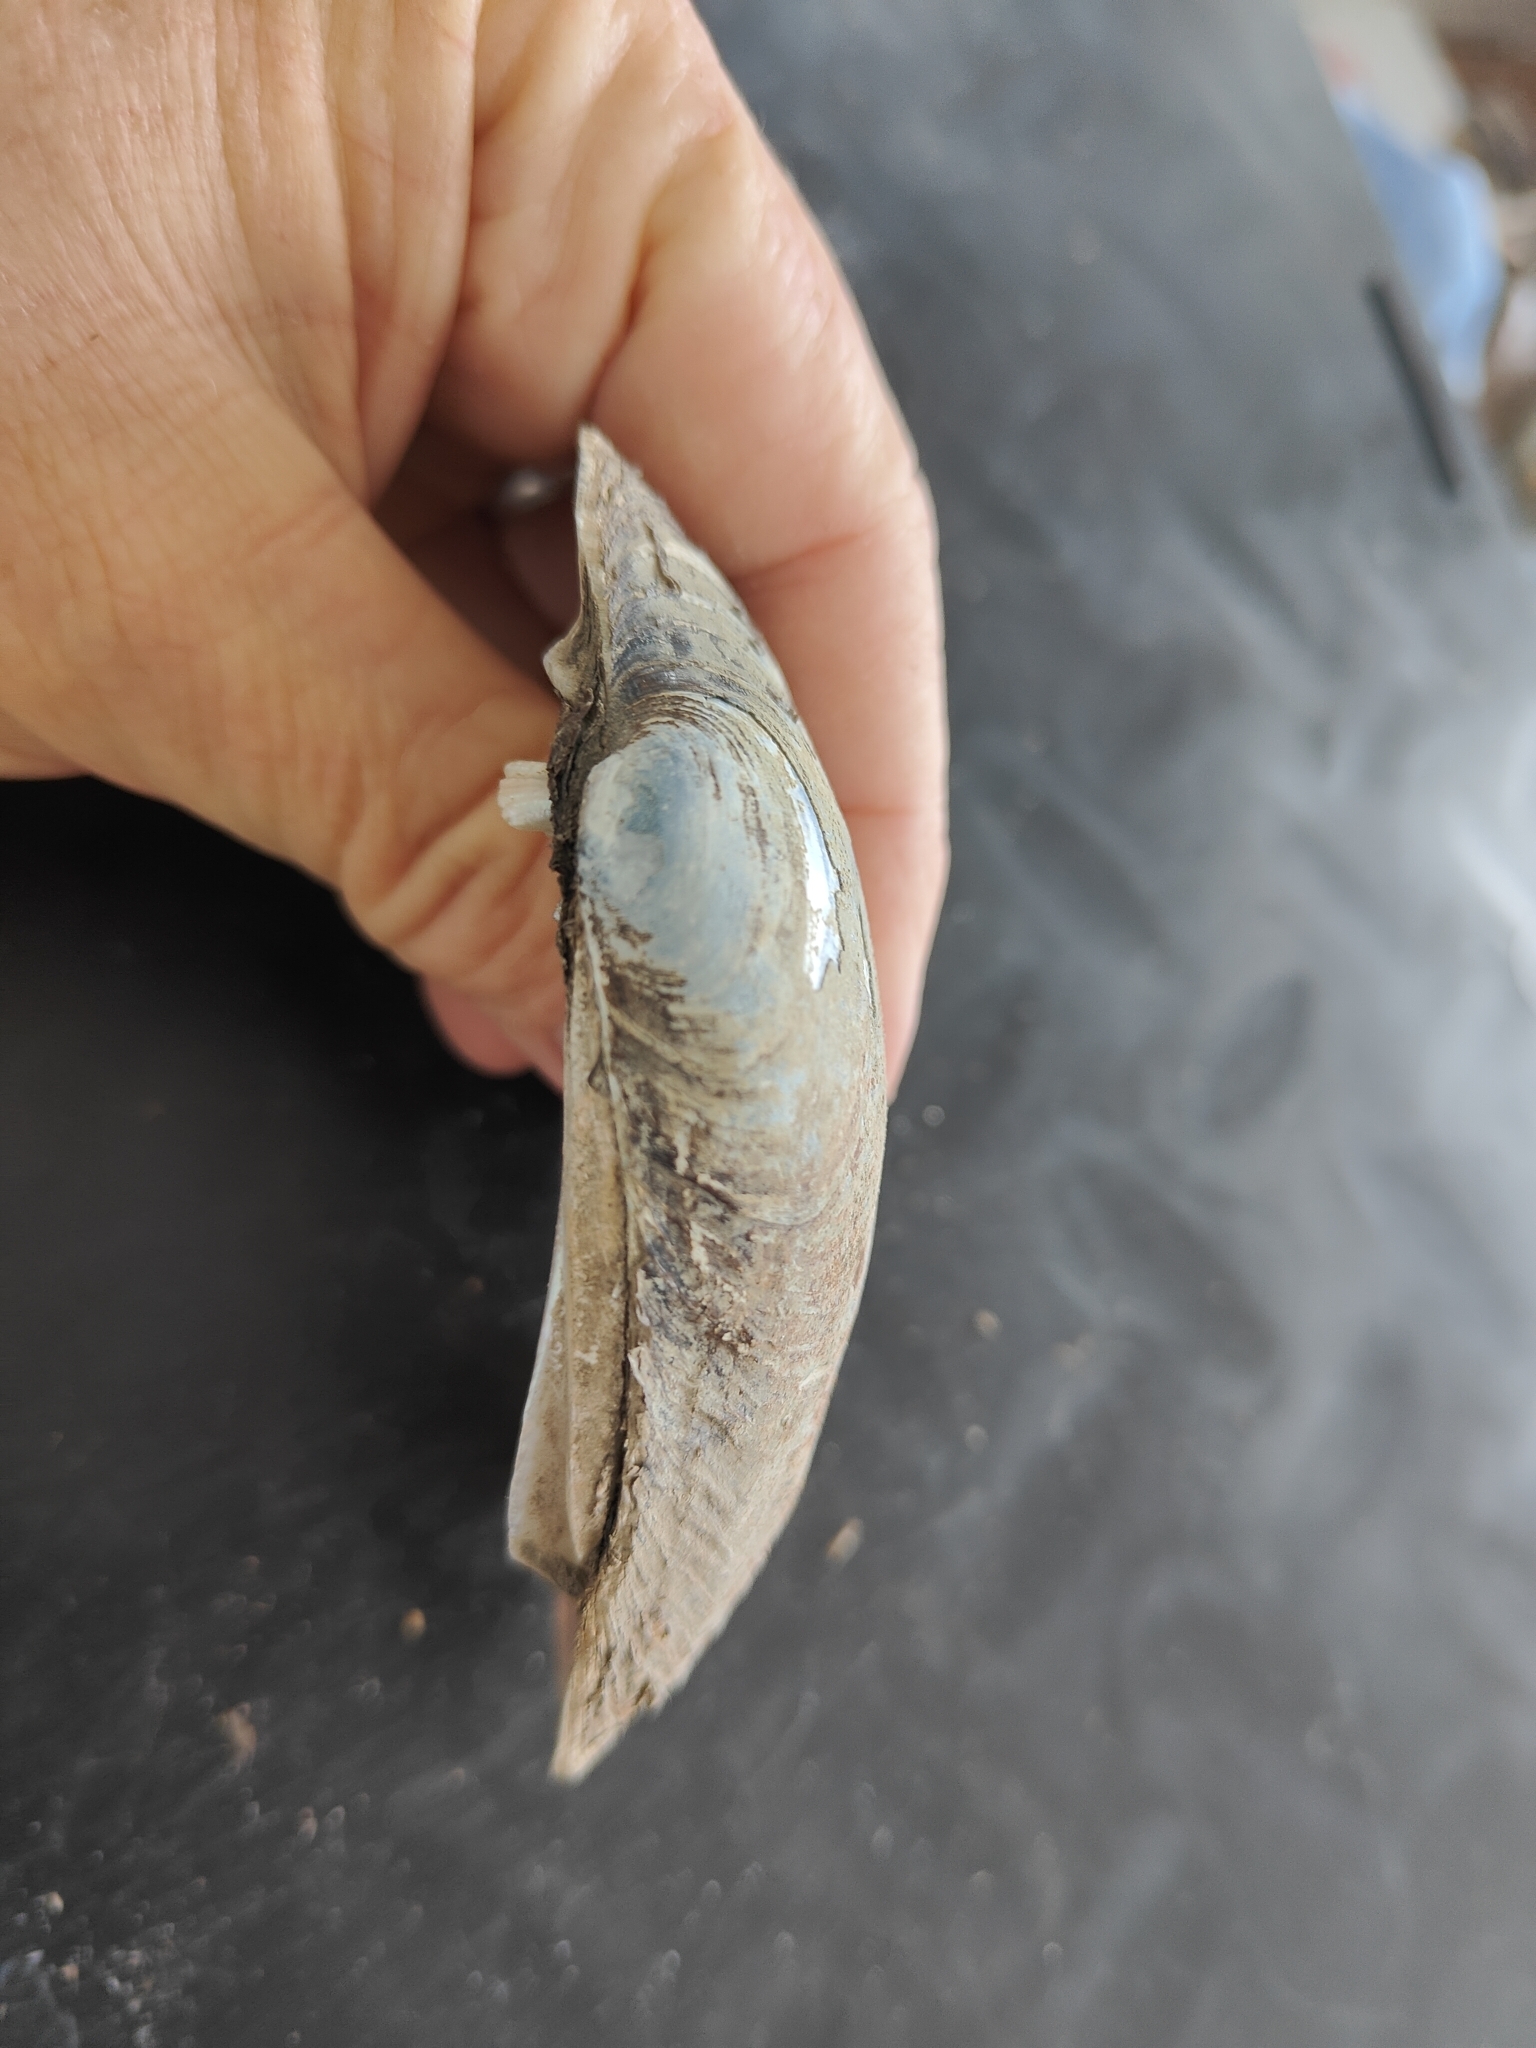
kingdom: Animalia
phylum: Mollusca
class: Bivalvia
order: Unionida
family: Unionidae
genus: Lampsilis
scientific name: Lampsilis cardium
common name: Plain pocketbook
